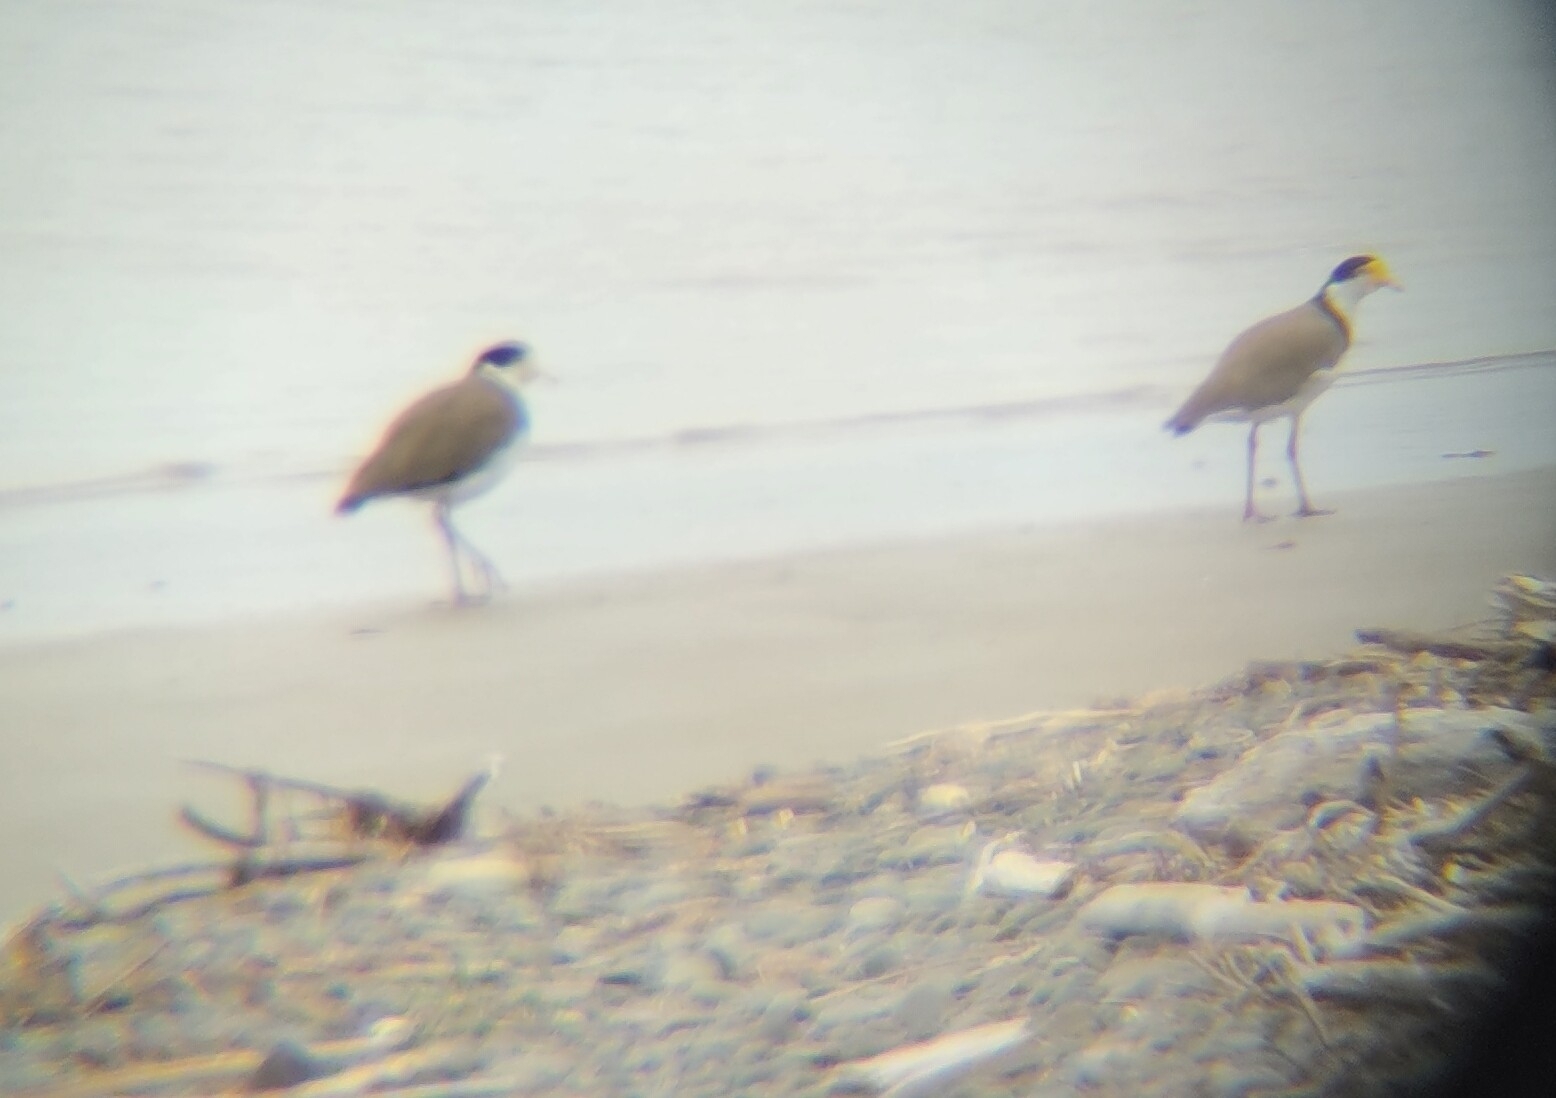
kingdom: Animalia
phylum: Chordata
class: Aves
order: Charadriiformes
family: Charadriidae
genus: Vanellus
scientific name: Vanellus miles
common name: Masked lapwing
